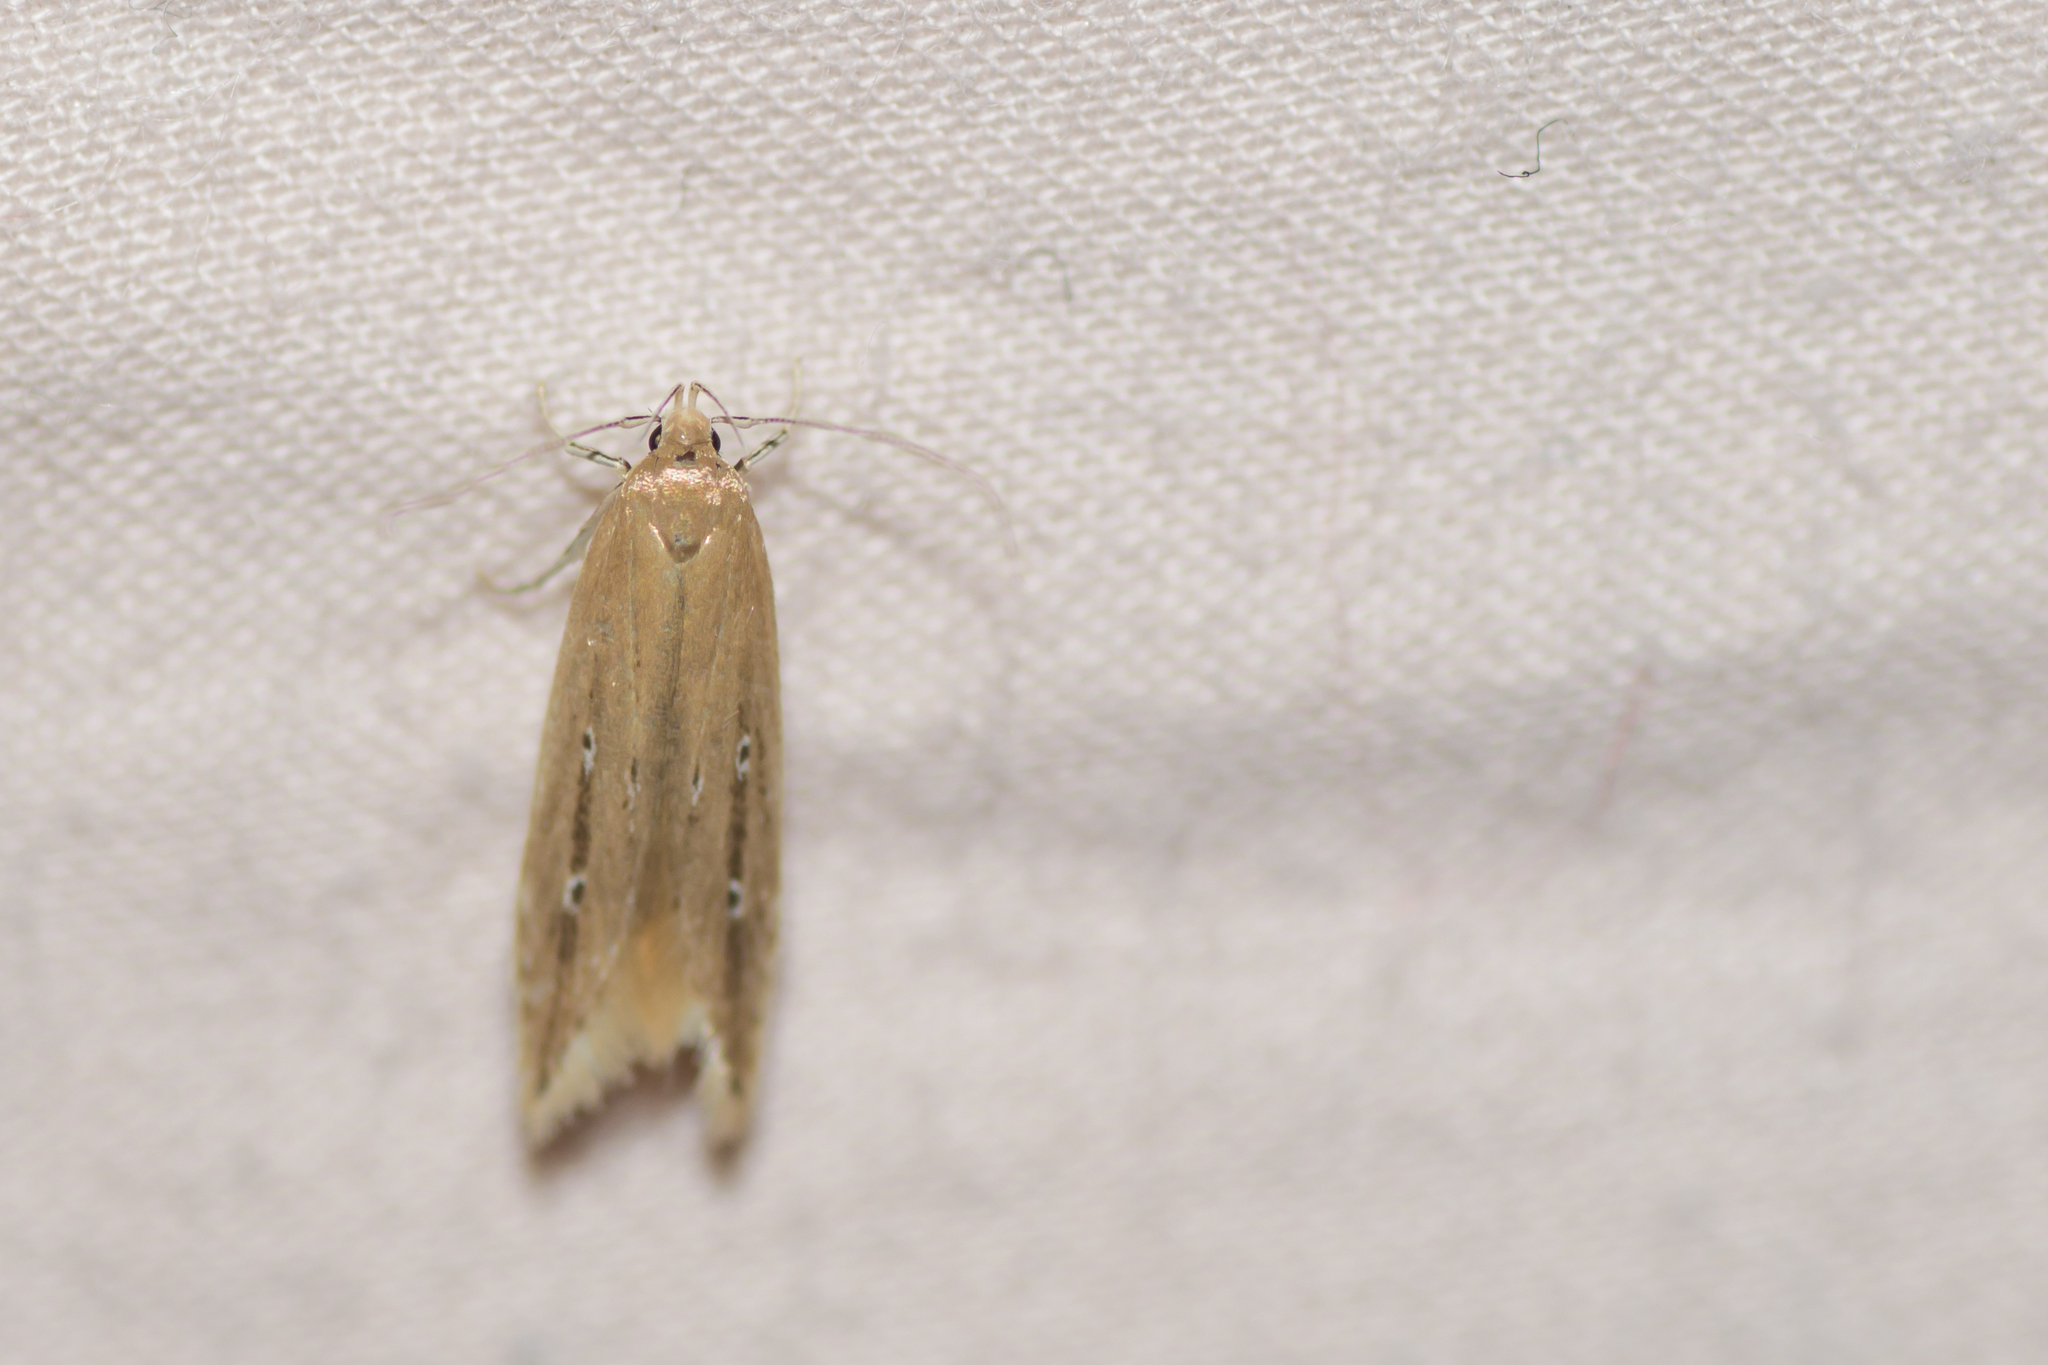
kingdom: Animalia
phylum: Arthropoda
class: Insecta
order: Lepidoptera
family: Cosmopterigidae
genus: Limnaecia
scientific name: Limnaecia phragmitella
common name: Bulrush cosmet
